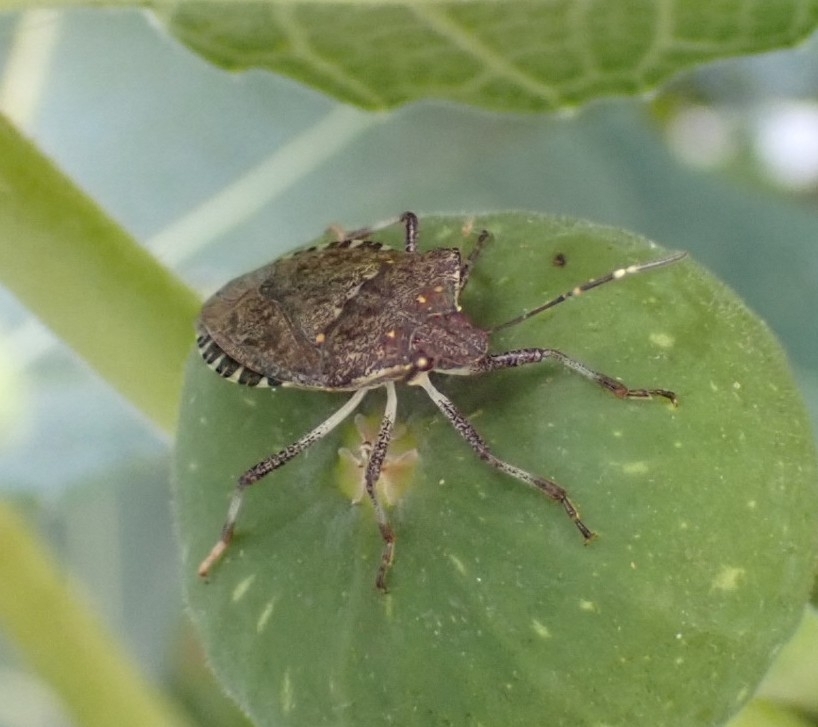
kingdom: Animalia
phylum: Arthropoda
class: Insecta
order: Hemiptera
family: Pentatomidae
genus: Halyomorpha
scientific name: Halyomorpha halys
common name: Brown marmorated stink bug
